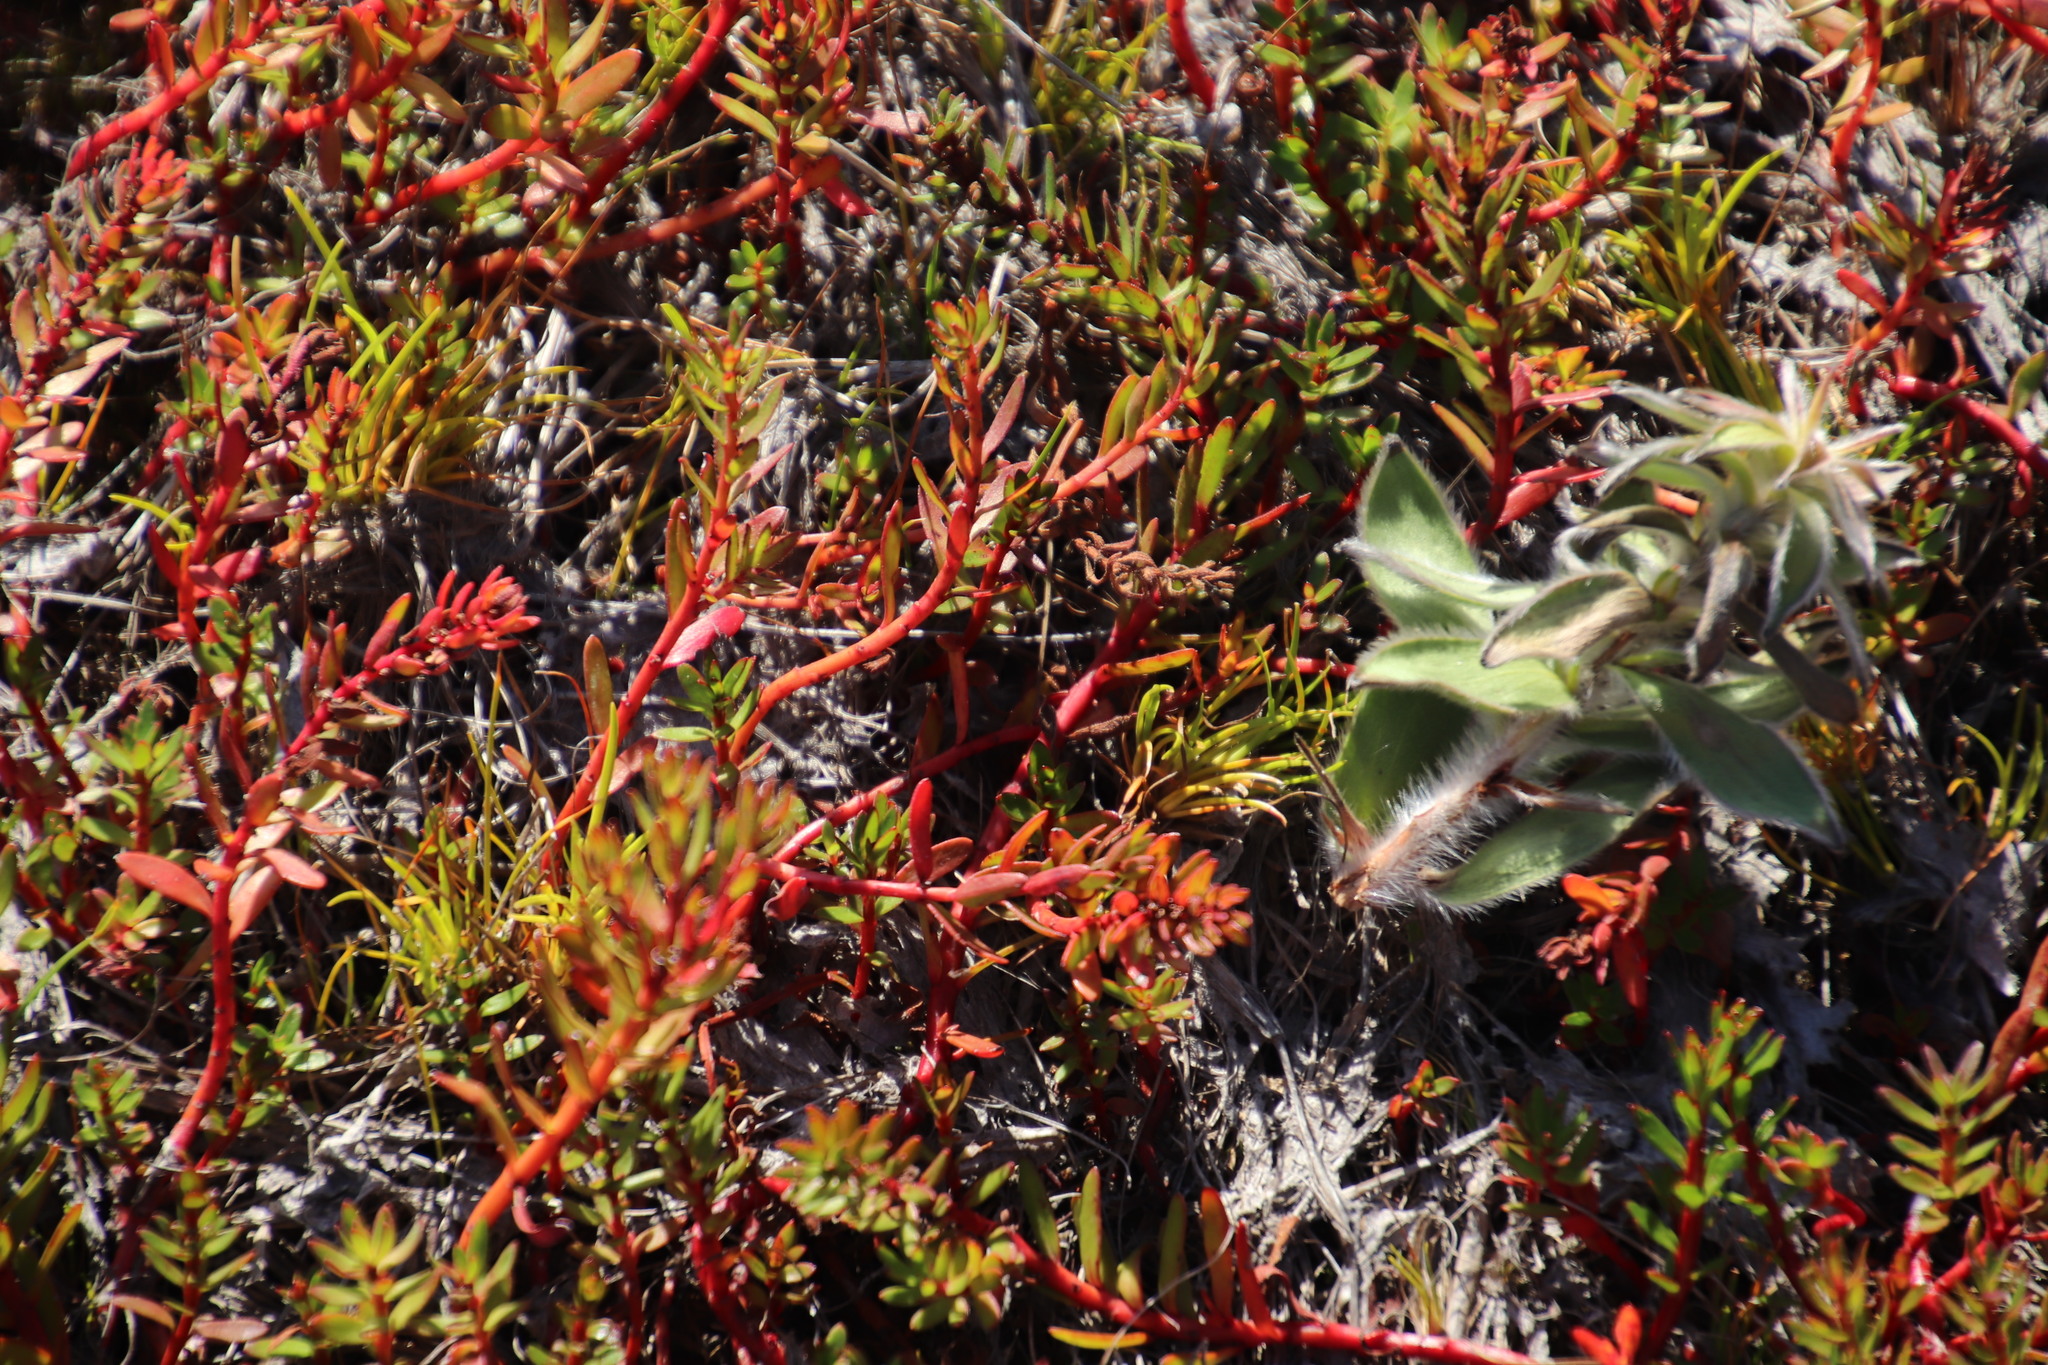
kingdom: Plantae
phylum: Tracheophyta
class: Magnoliopsida
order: Saxifragales
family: Haloragaceae
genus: Laurembergia
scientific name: Laurembergia repens
